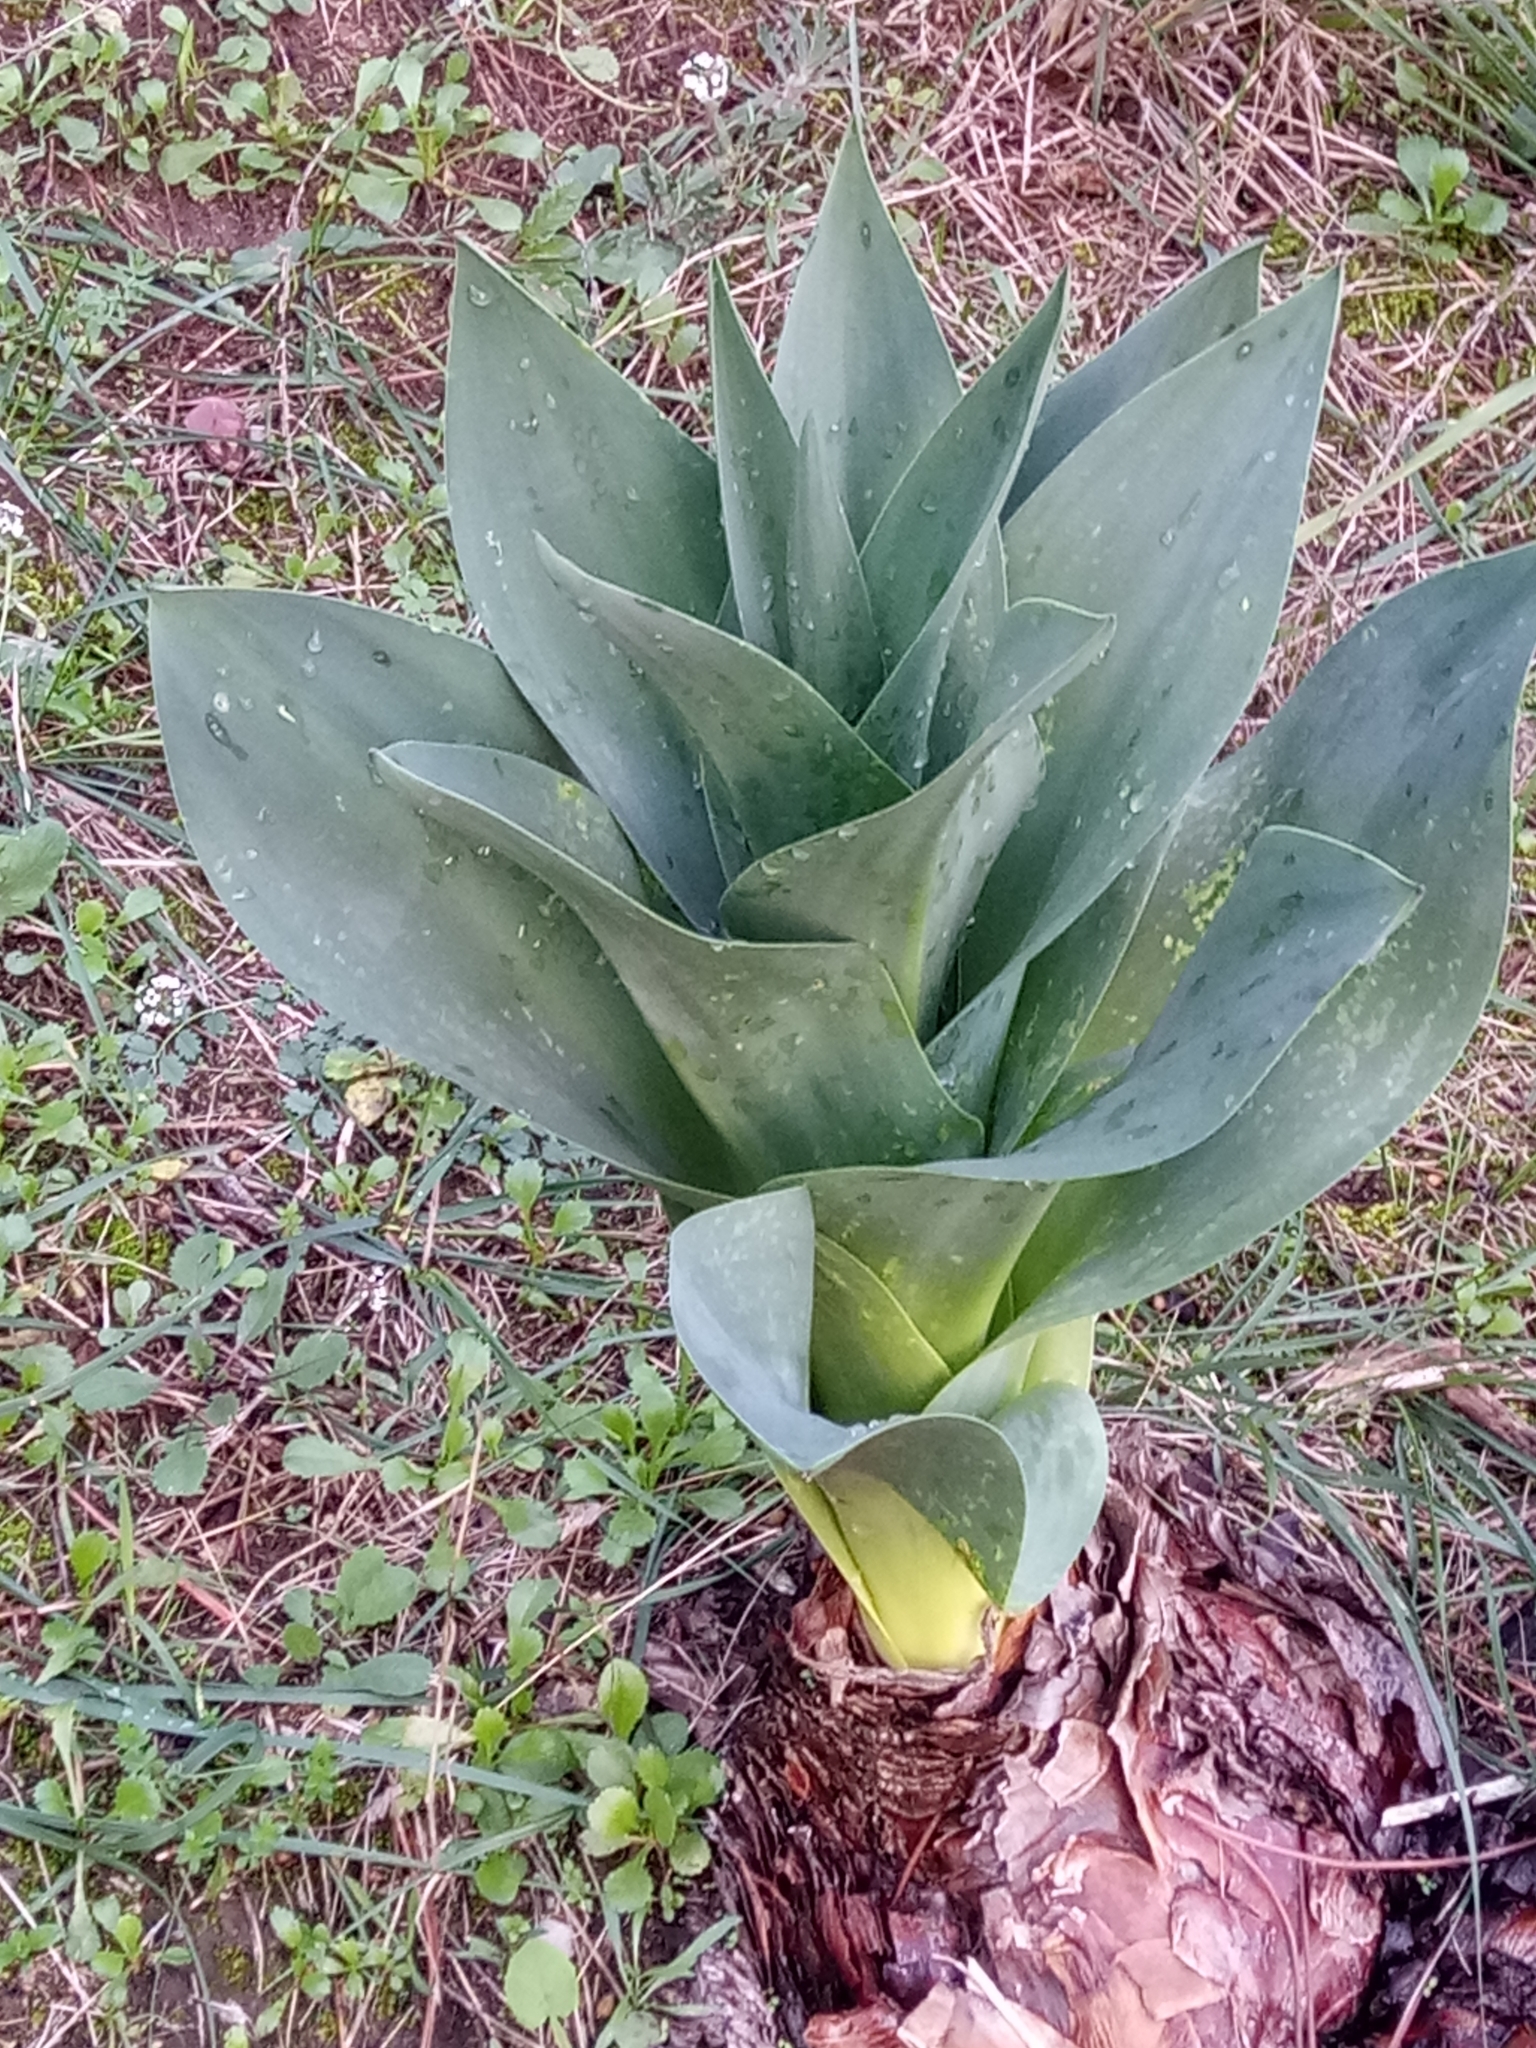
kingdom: Plantae
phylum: Tracheophyta
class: Liliopsida
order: Asparagales
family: Asparagaceae
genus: Drimia
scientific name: Drimia numidica
